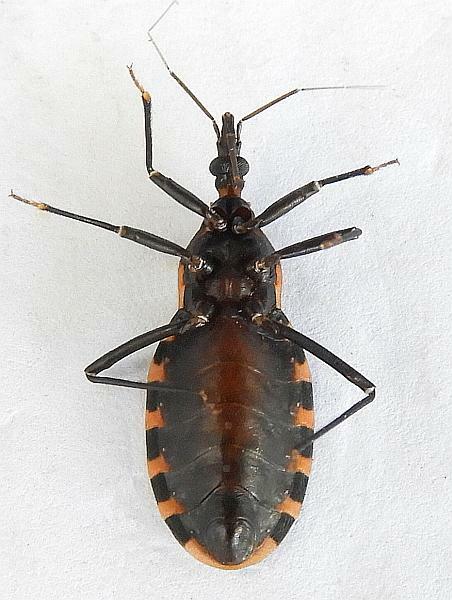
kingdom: Animalia
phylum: Arthropoda
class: Insecta
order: Hemiptera
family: Reduviidae
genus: Triatoma
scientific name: Triatoma sanguisuga
